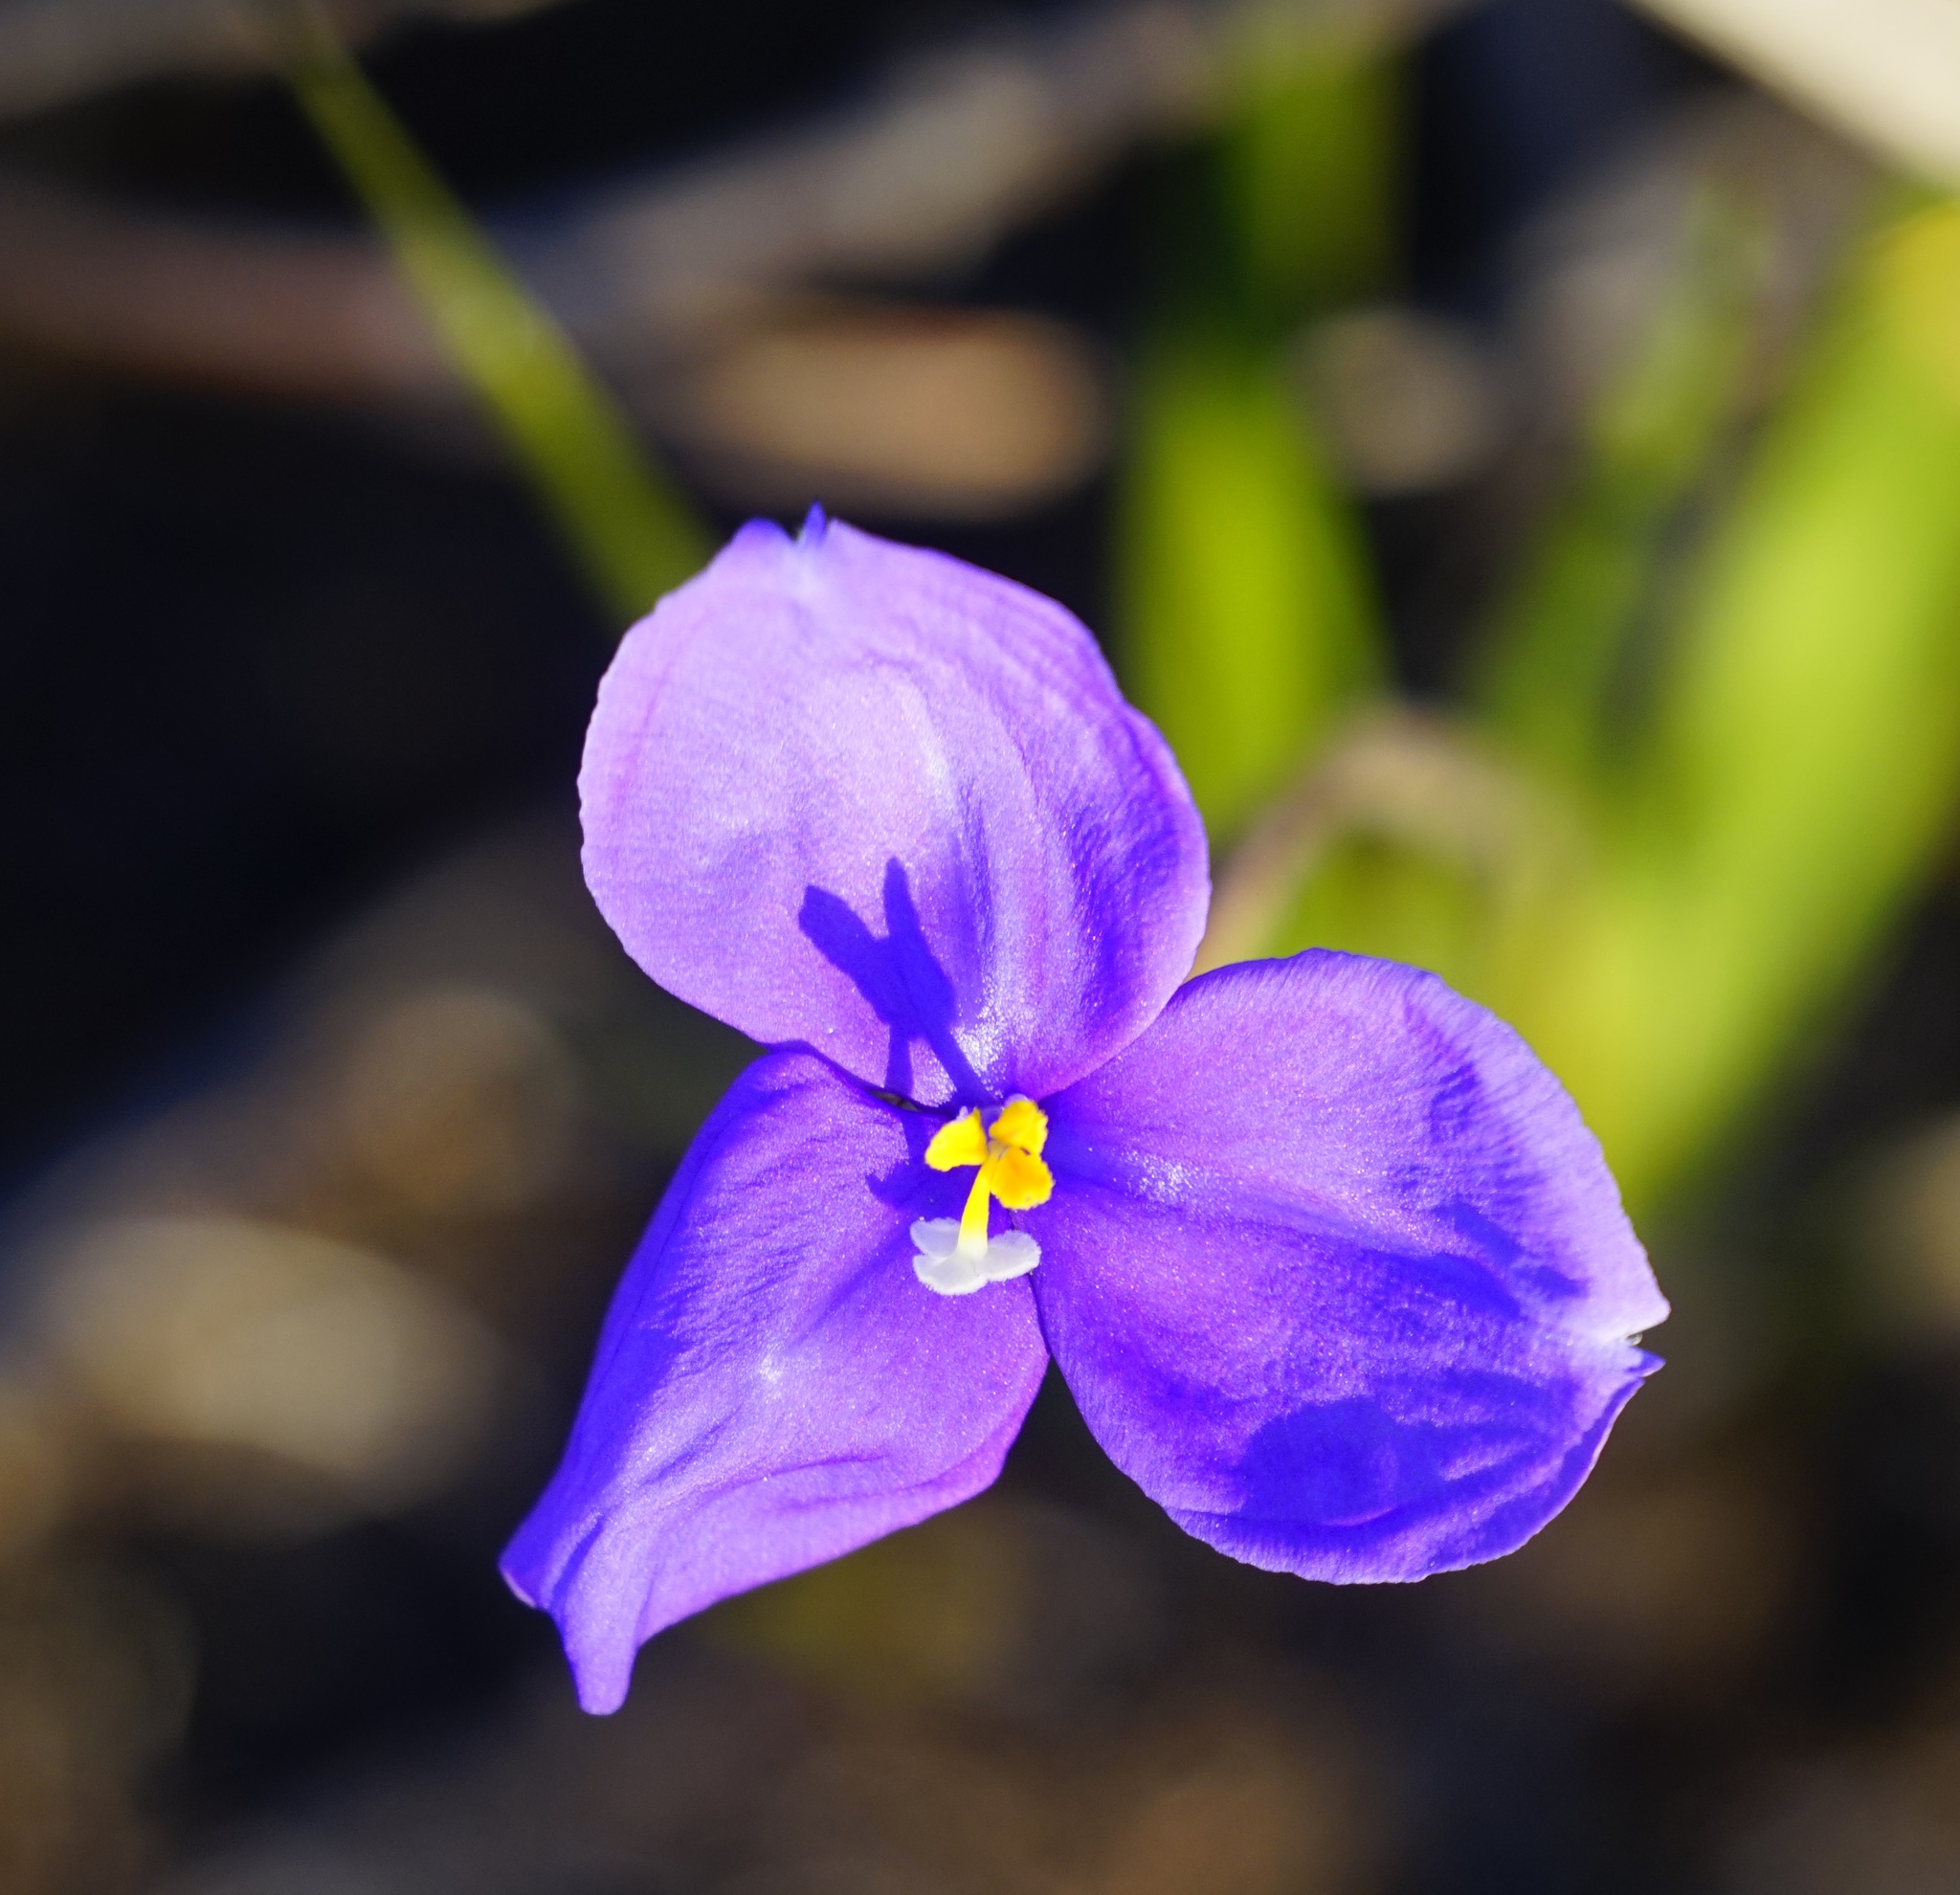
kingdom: Plantae
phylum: Tracheophyta
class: Liliopsida
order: Asparagales
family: Iridaceae
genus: Patersonia
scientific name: Patersonia sericea
